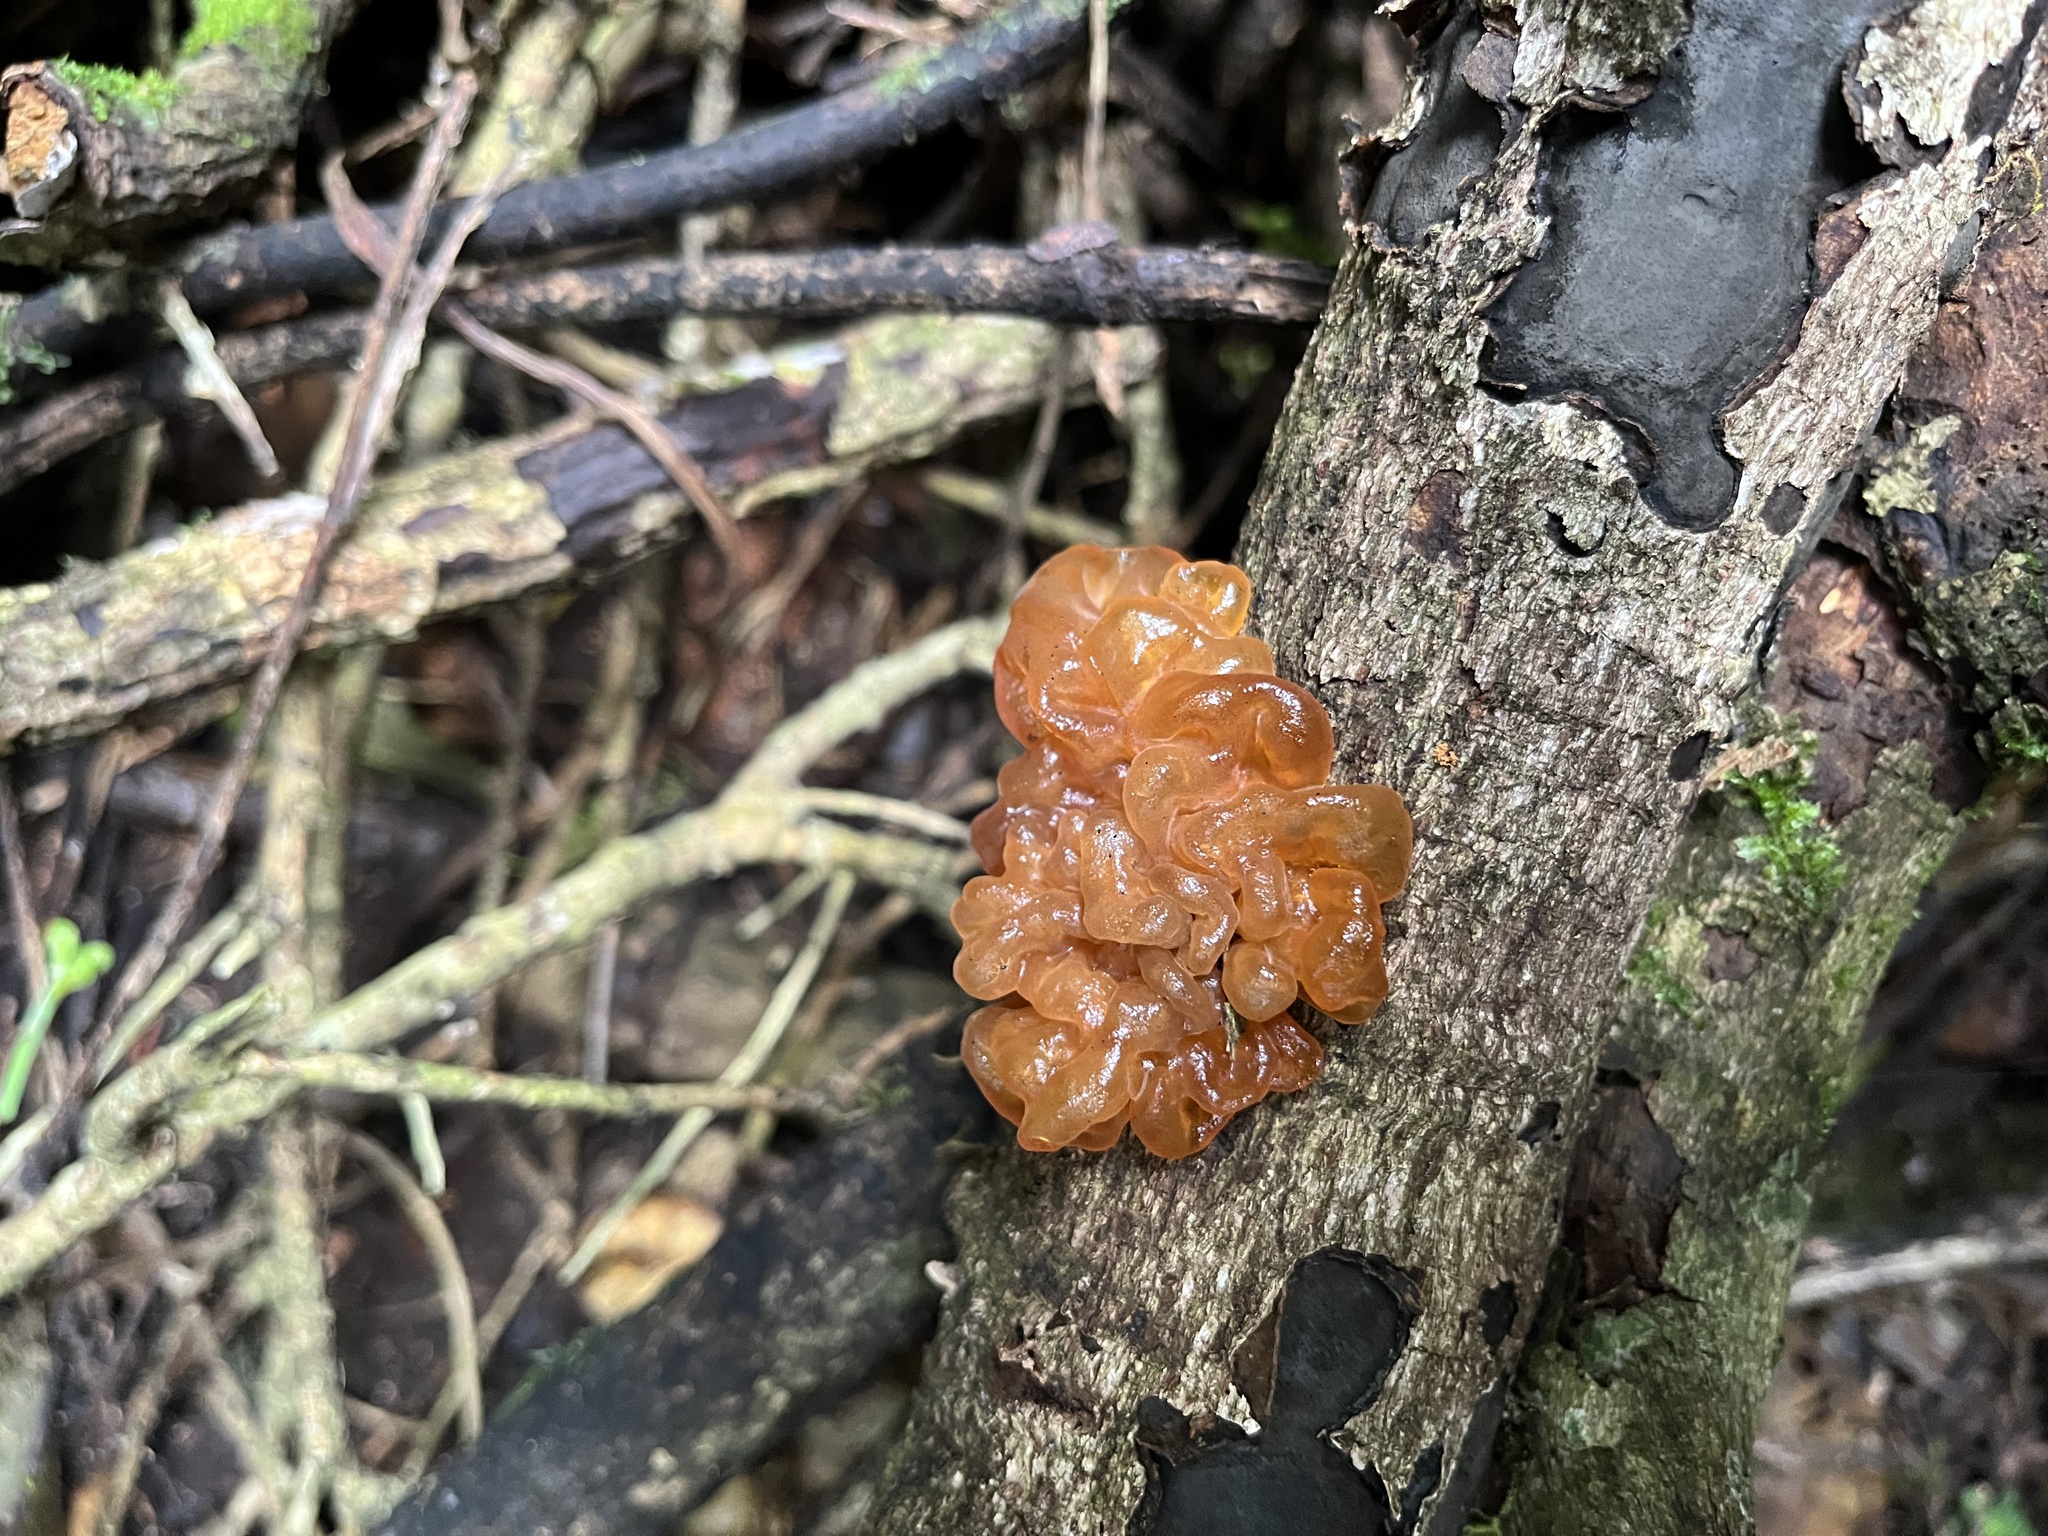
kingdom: Fungi
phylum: Basidiomycota
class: Tremellomycetes
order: Tremellales
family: Tremellaceae
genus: Tremella
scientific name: Tremella vesiculosa
